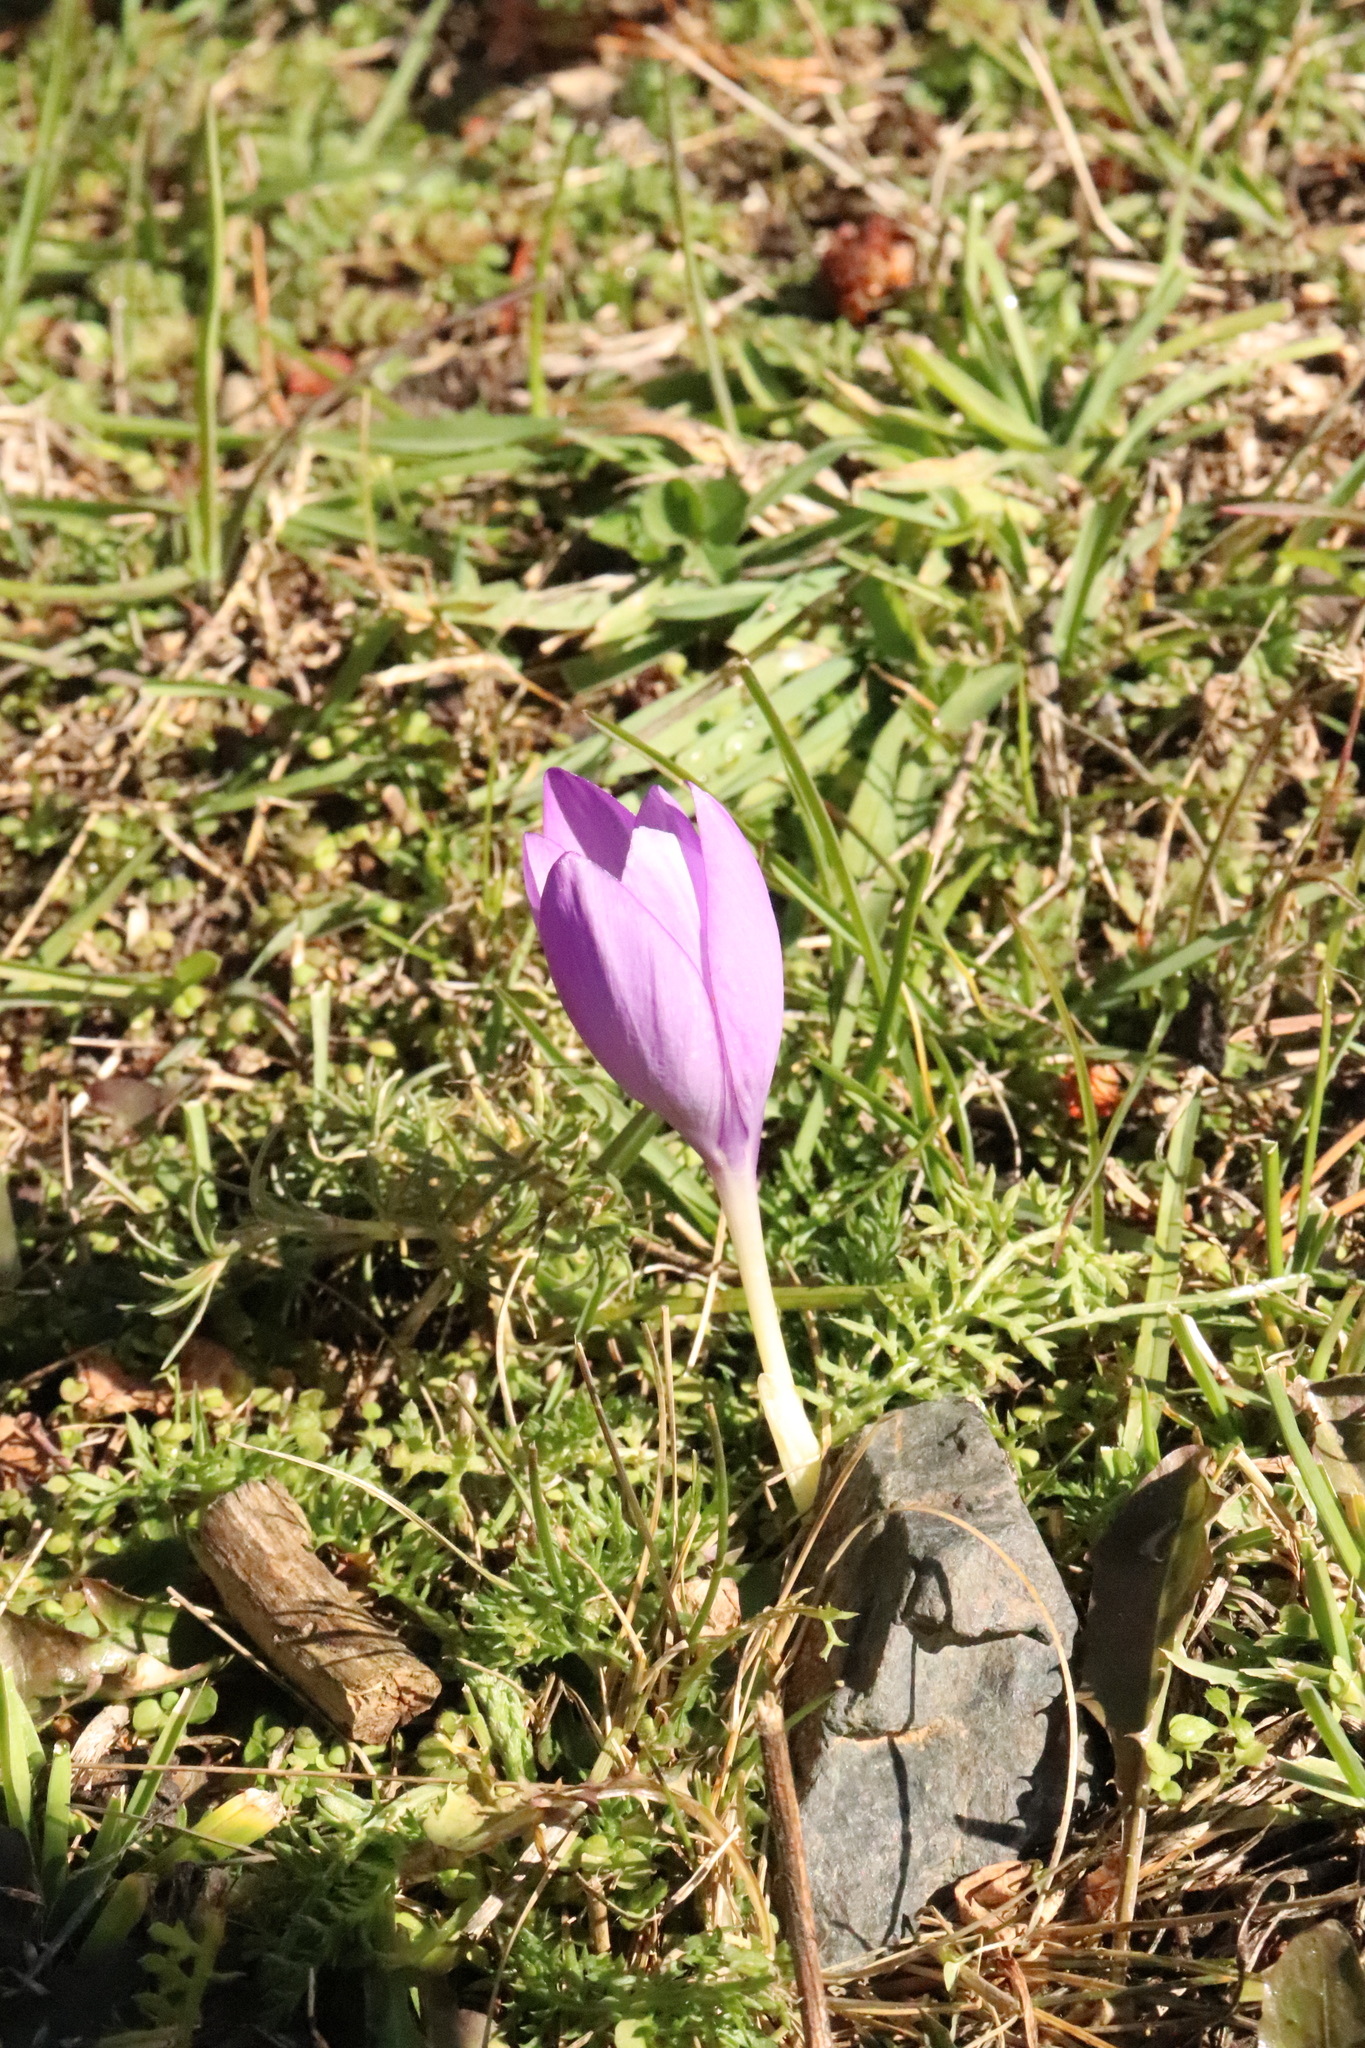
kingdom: Plantae
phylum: Tracheophyta
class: Liliopsida
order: Asparagales
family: Iridaceae
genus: Crocus
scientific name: Crocus nudiflorus
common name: Autumn crocus
